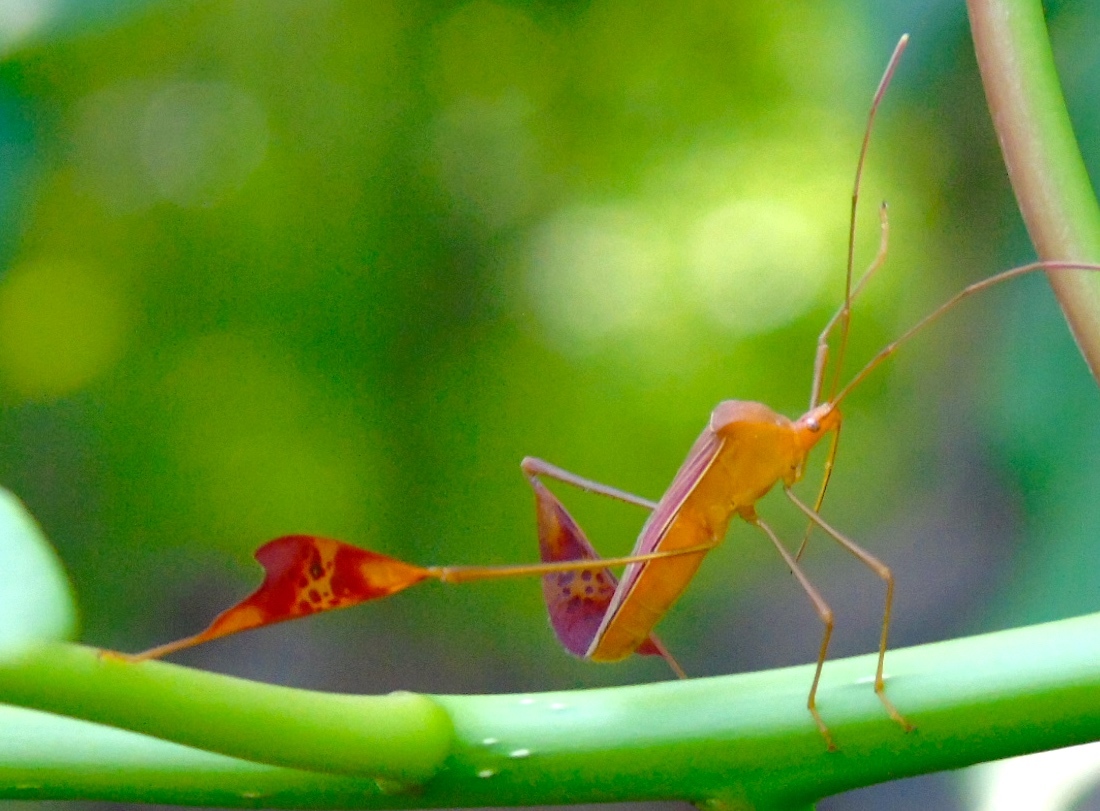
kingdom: Animalia
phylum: Arthropoda
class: Insecta
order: Hemiptera
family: Coreidae
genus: Bitta
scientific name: Bitta
